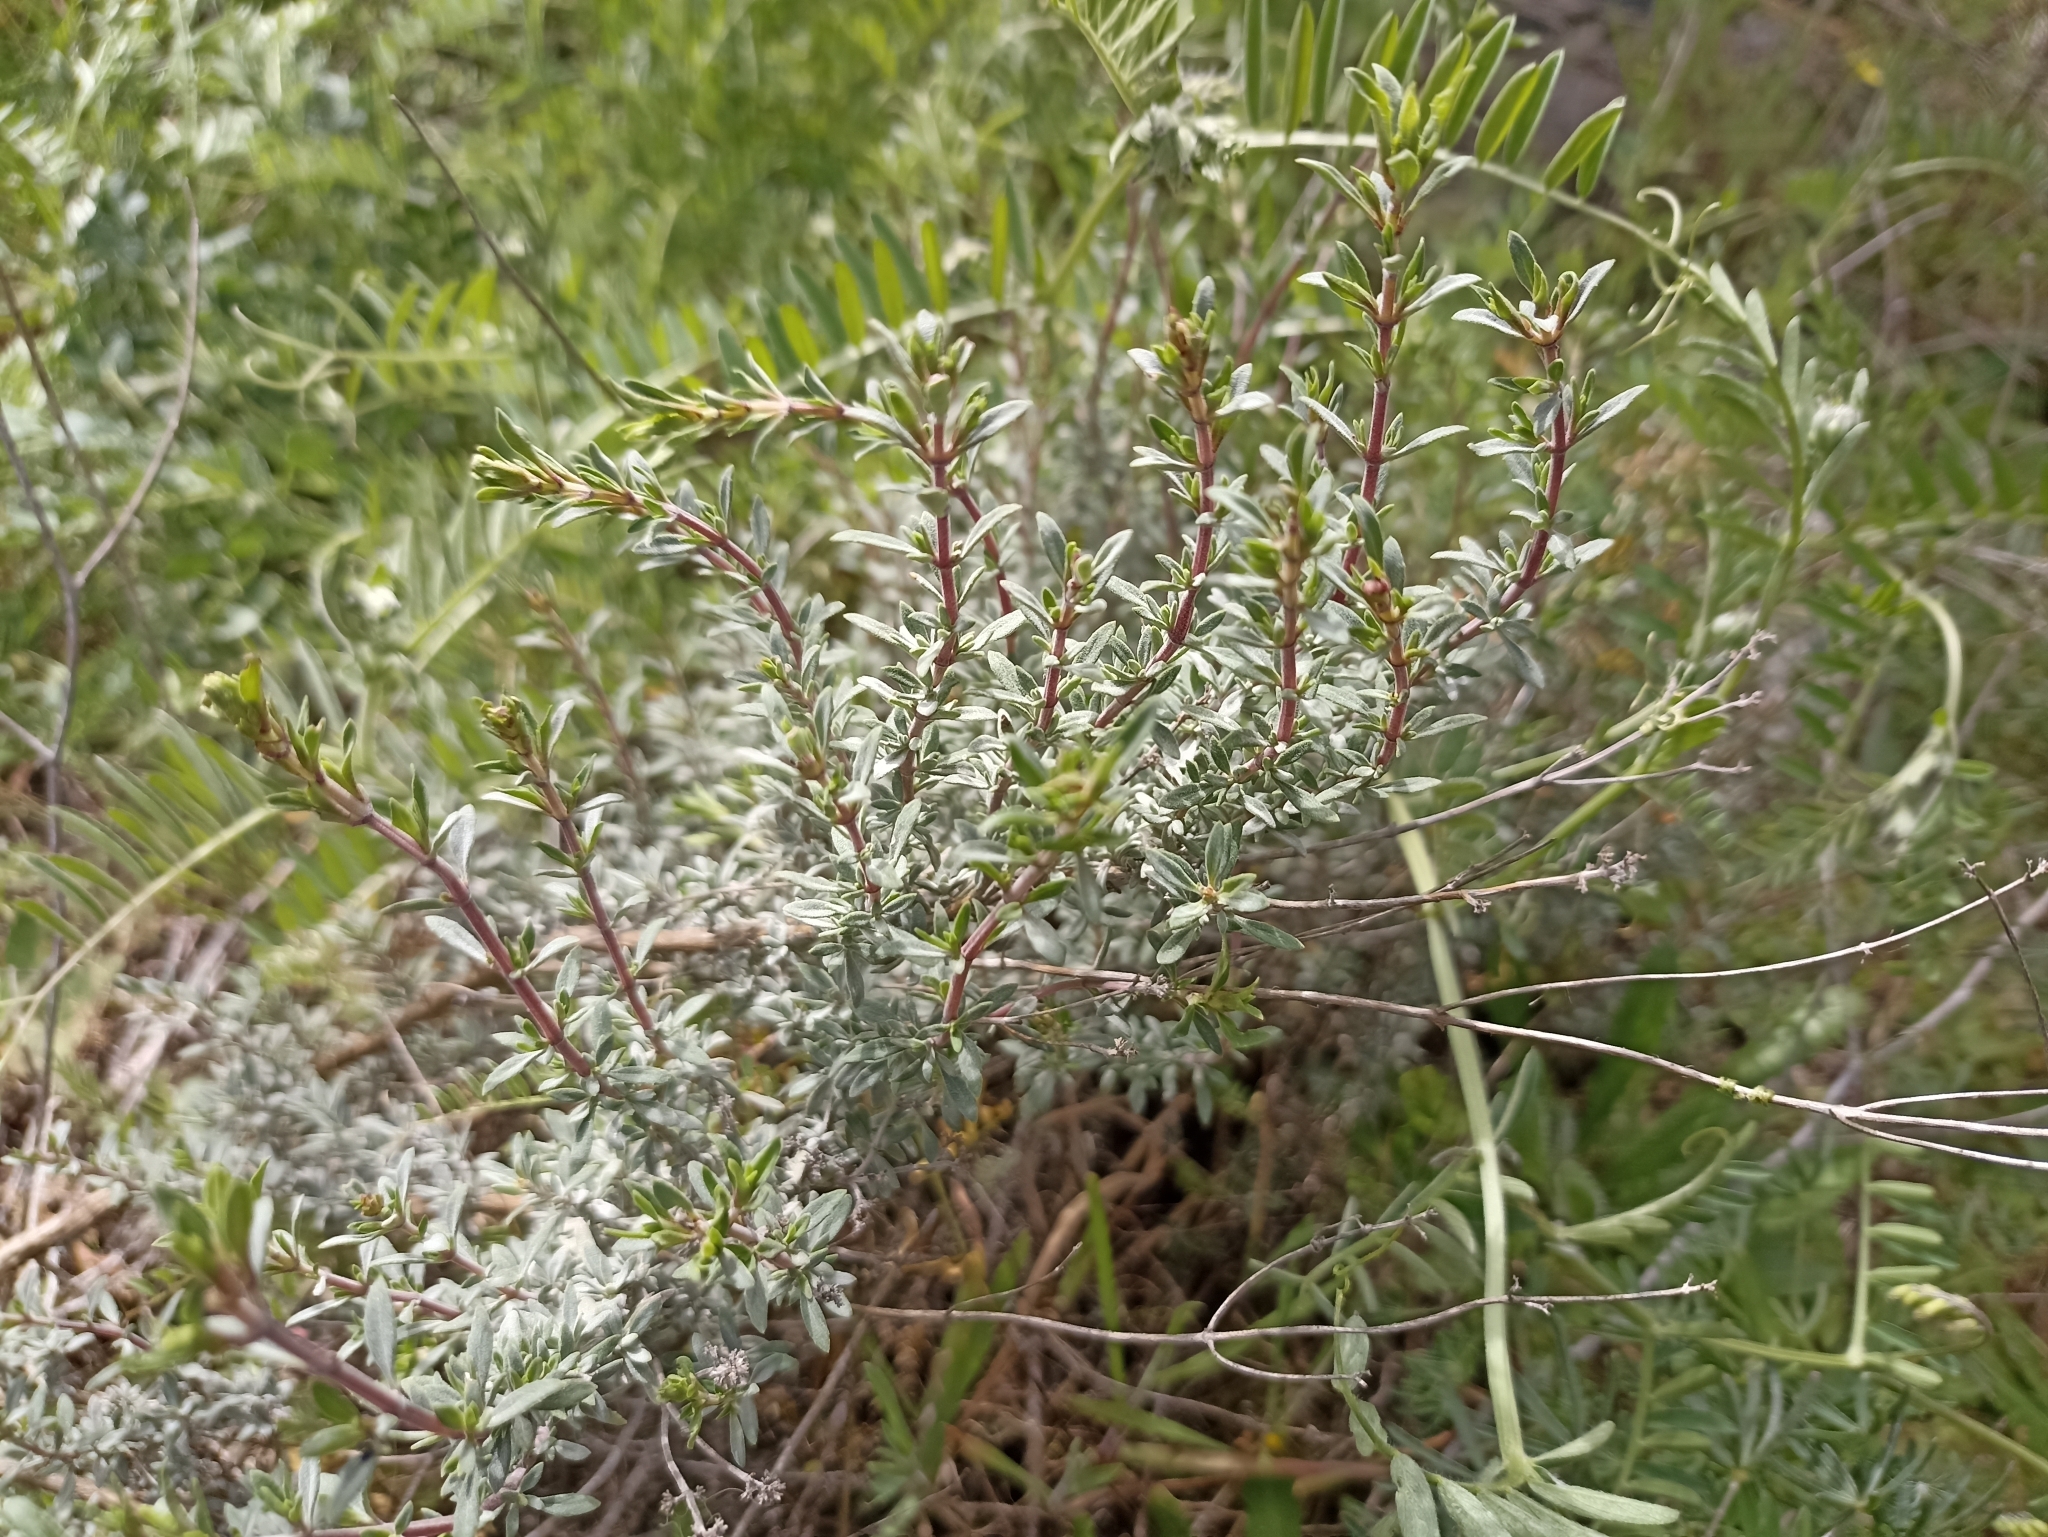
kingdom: Plantae
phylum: Tracheophyta
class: Magnoliopsida
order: Lamiales
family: Lamiaceae
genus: Thymus
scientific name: Thymus mastichina
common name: Mastic thyme
